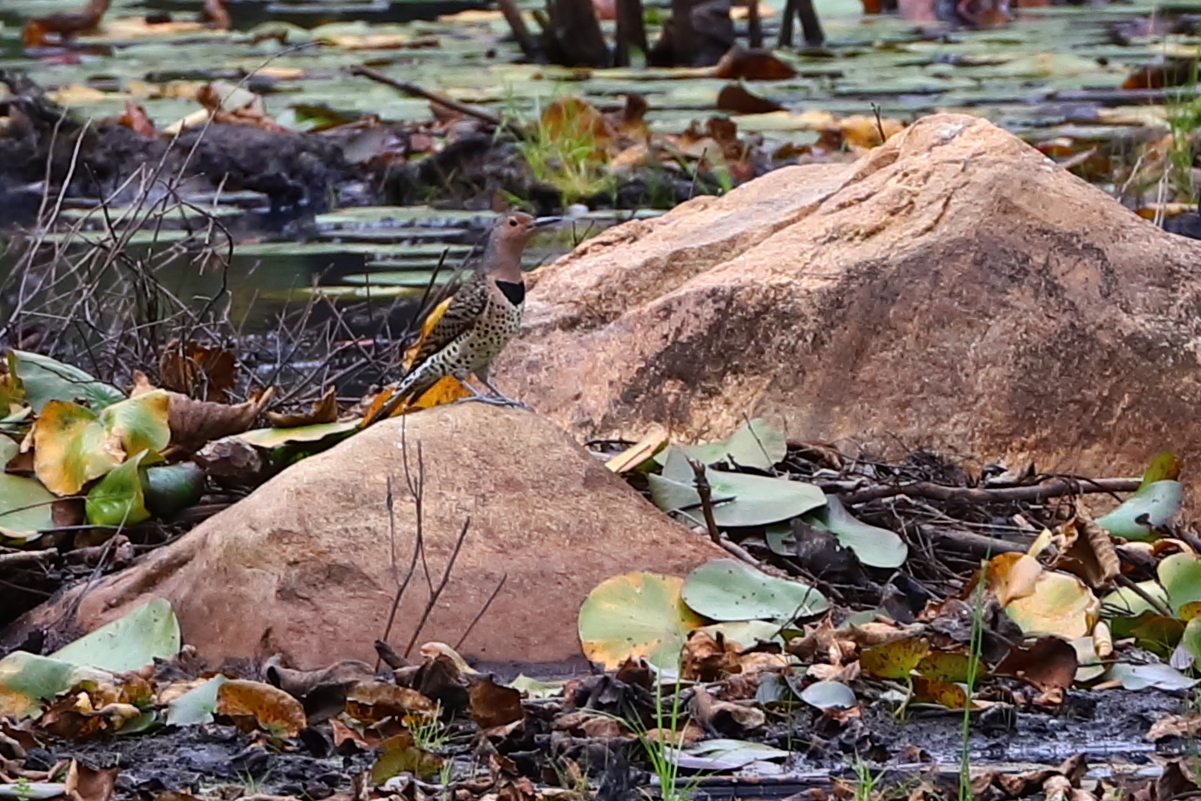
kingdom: Animalia
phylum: Chordata
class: Aves
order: Piciformes
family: Picidae
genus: Colaptes
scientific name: Colaptes auratus
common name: Northern flicker
